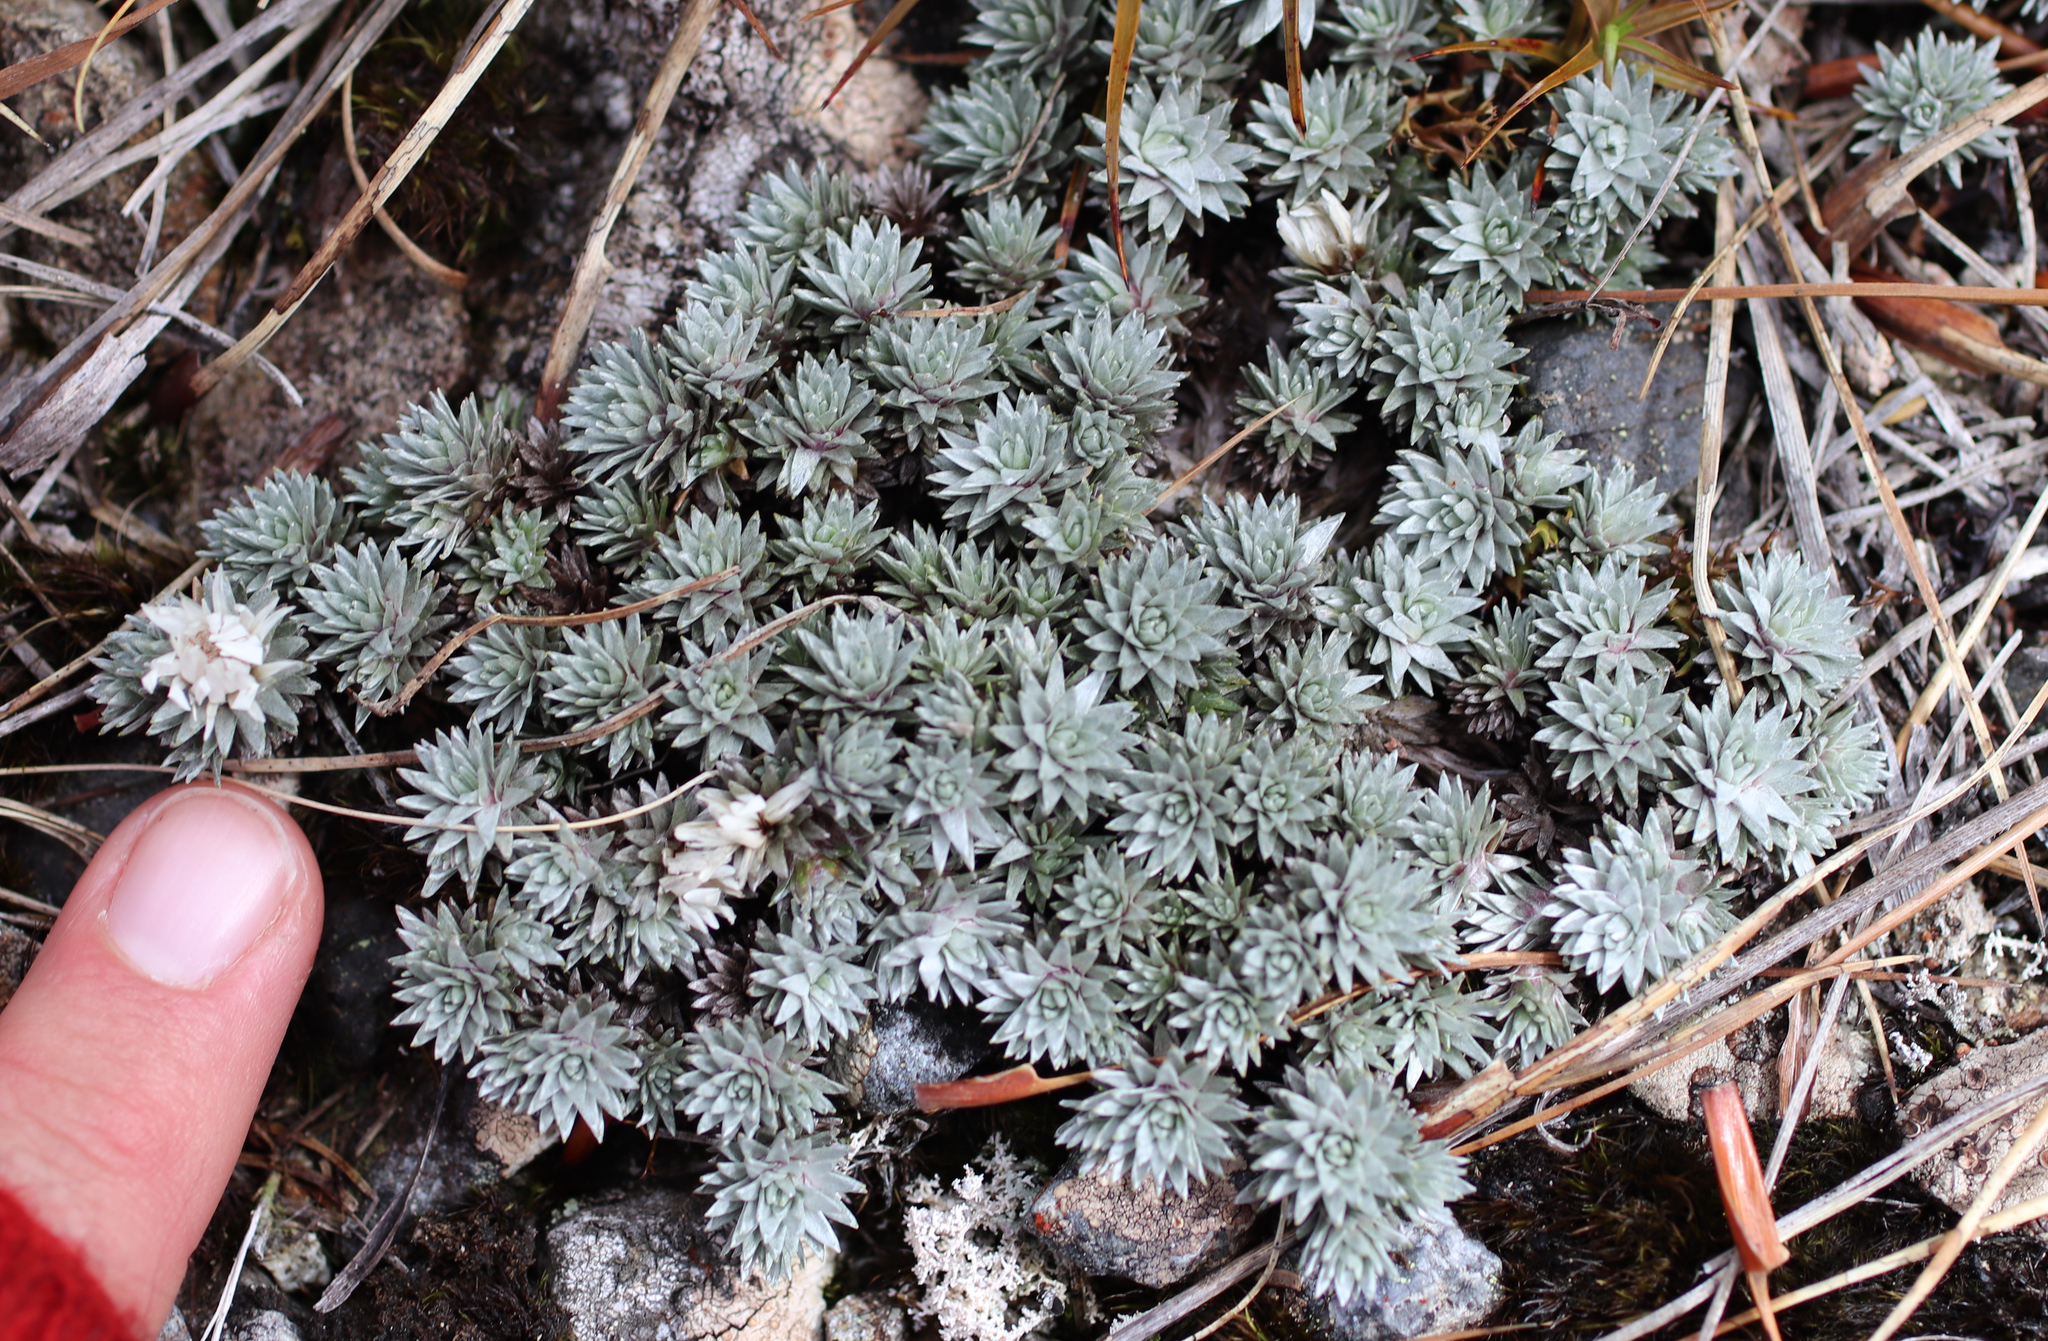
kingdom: Plantae
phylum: Tracheophyta
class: Magnoliopsida
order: Asterales
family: Asteraceae
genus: Raoulia
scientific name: Raoulia grandiflora
